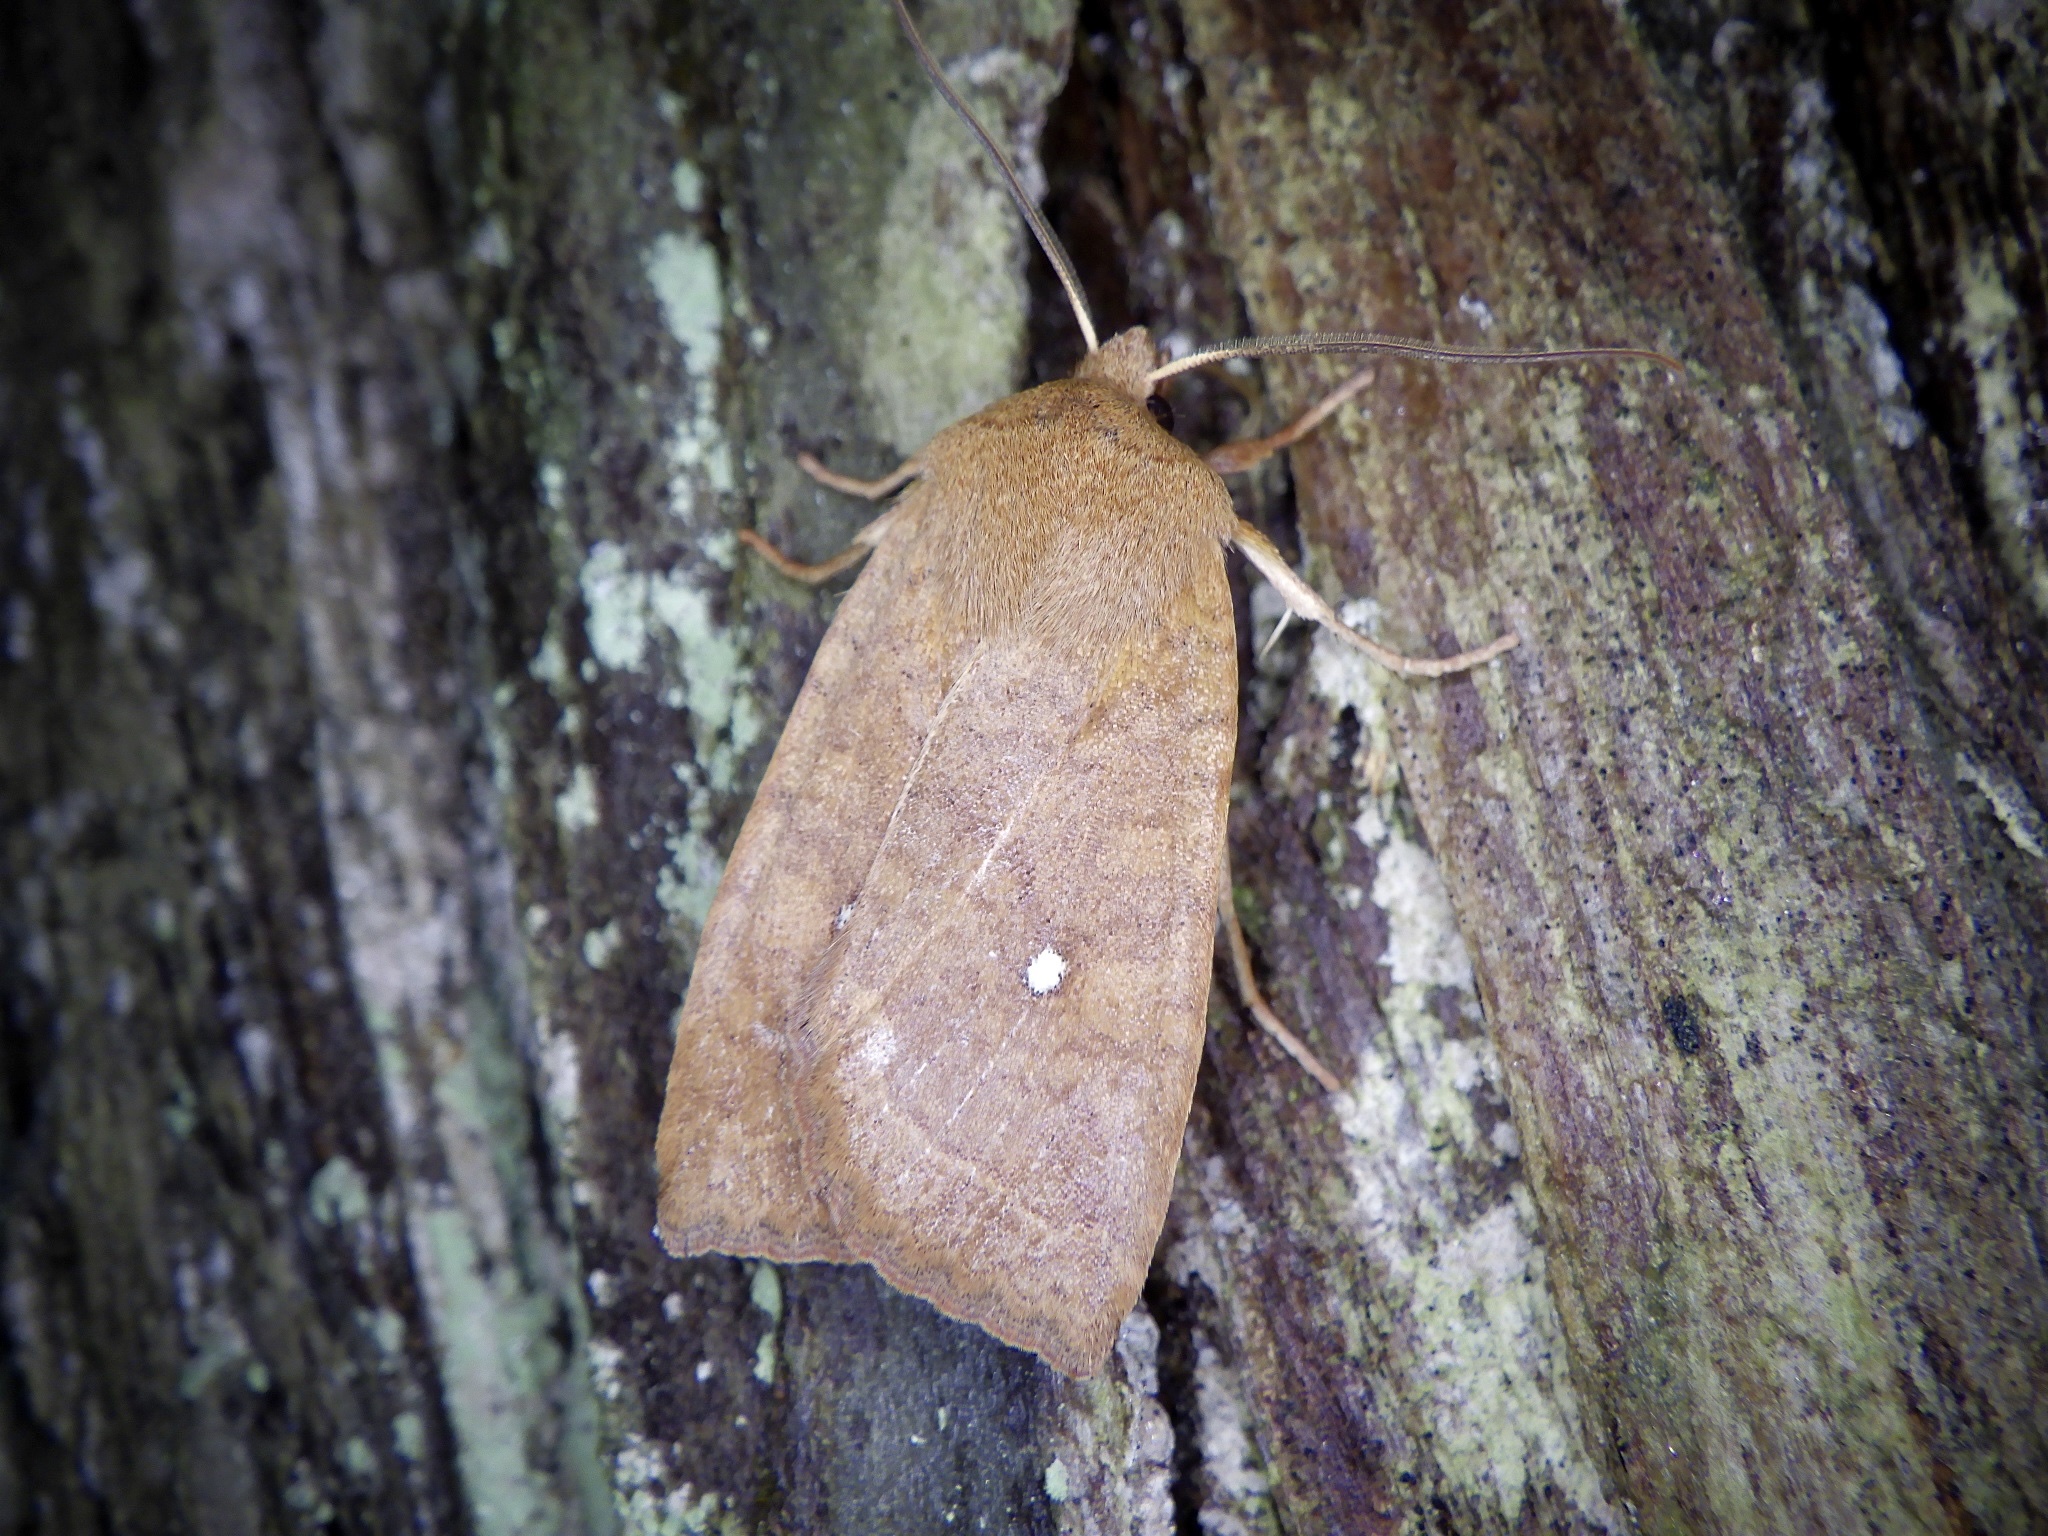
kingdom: Animalia
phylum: Arthropoda
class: Insecta
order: Lepidoptera
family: Noctuidae
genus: Conistra
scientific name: Conistra albipuncta
